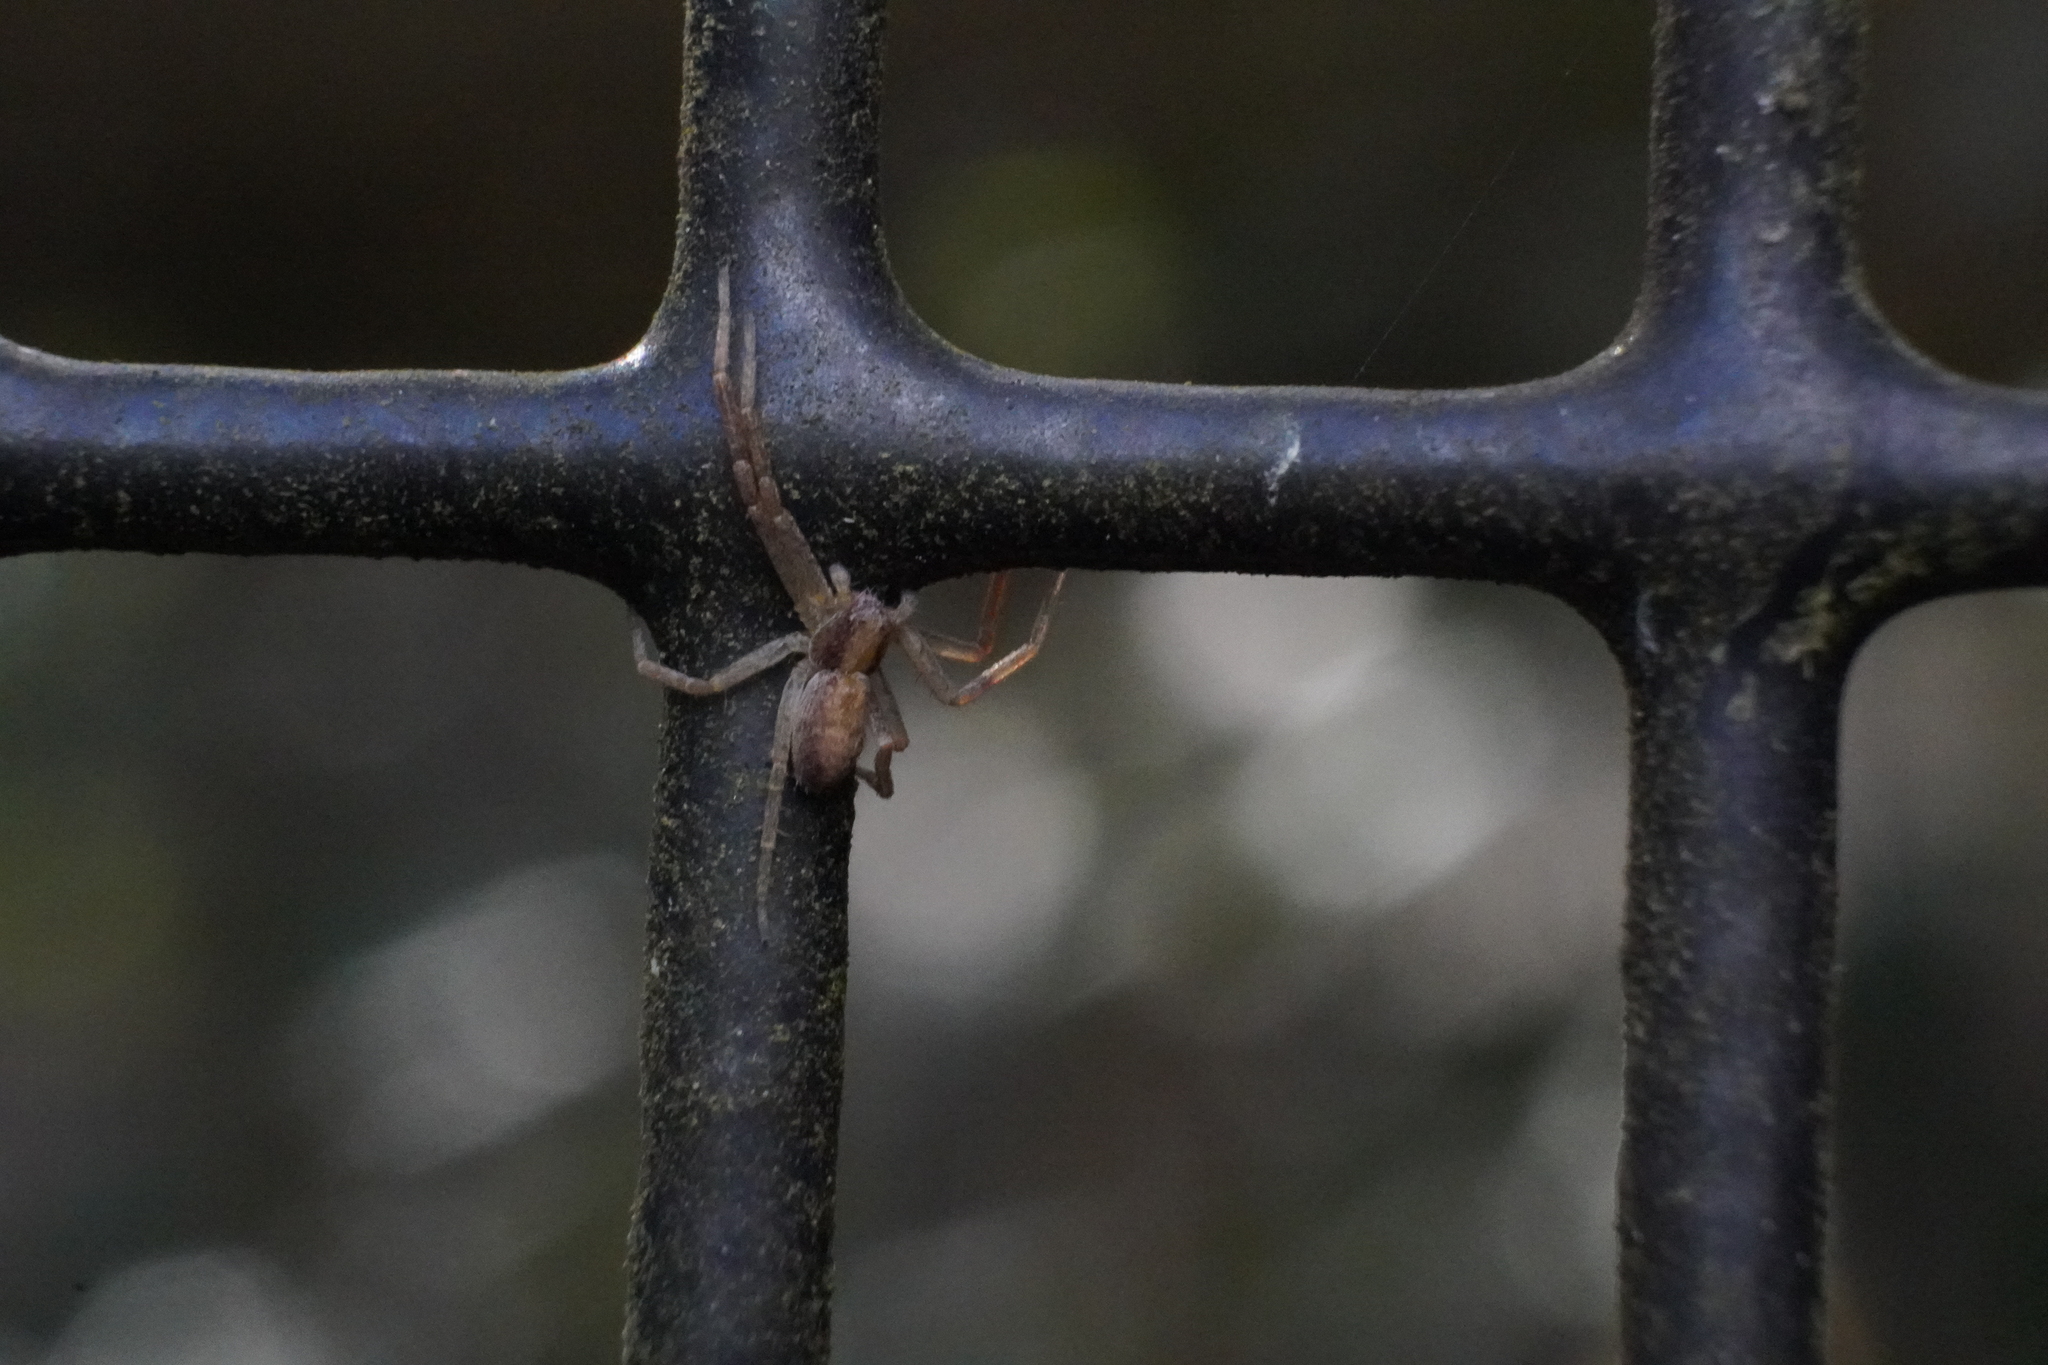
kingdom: Animalia
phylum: Arthropoda
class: Arachnida
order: Araneae
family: Philodromidae
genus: Philodromus
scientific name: Philodromus rufus
